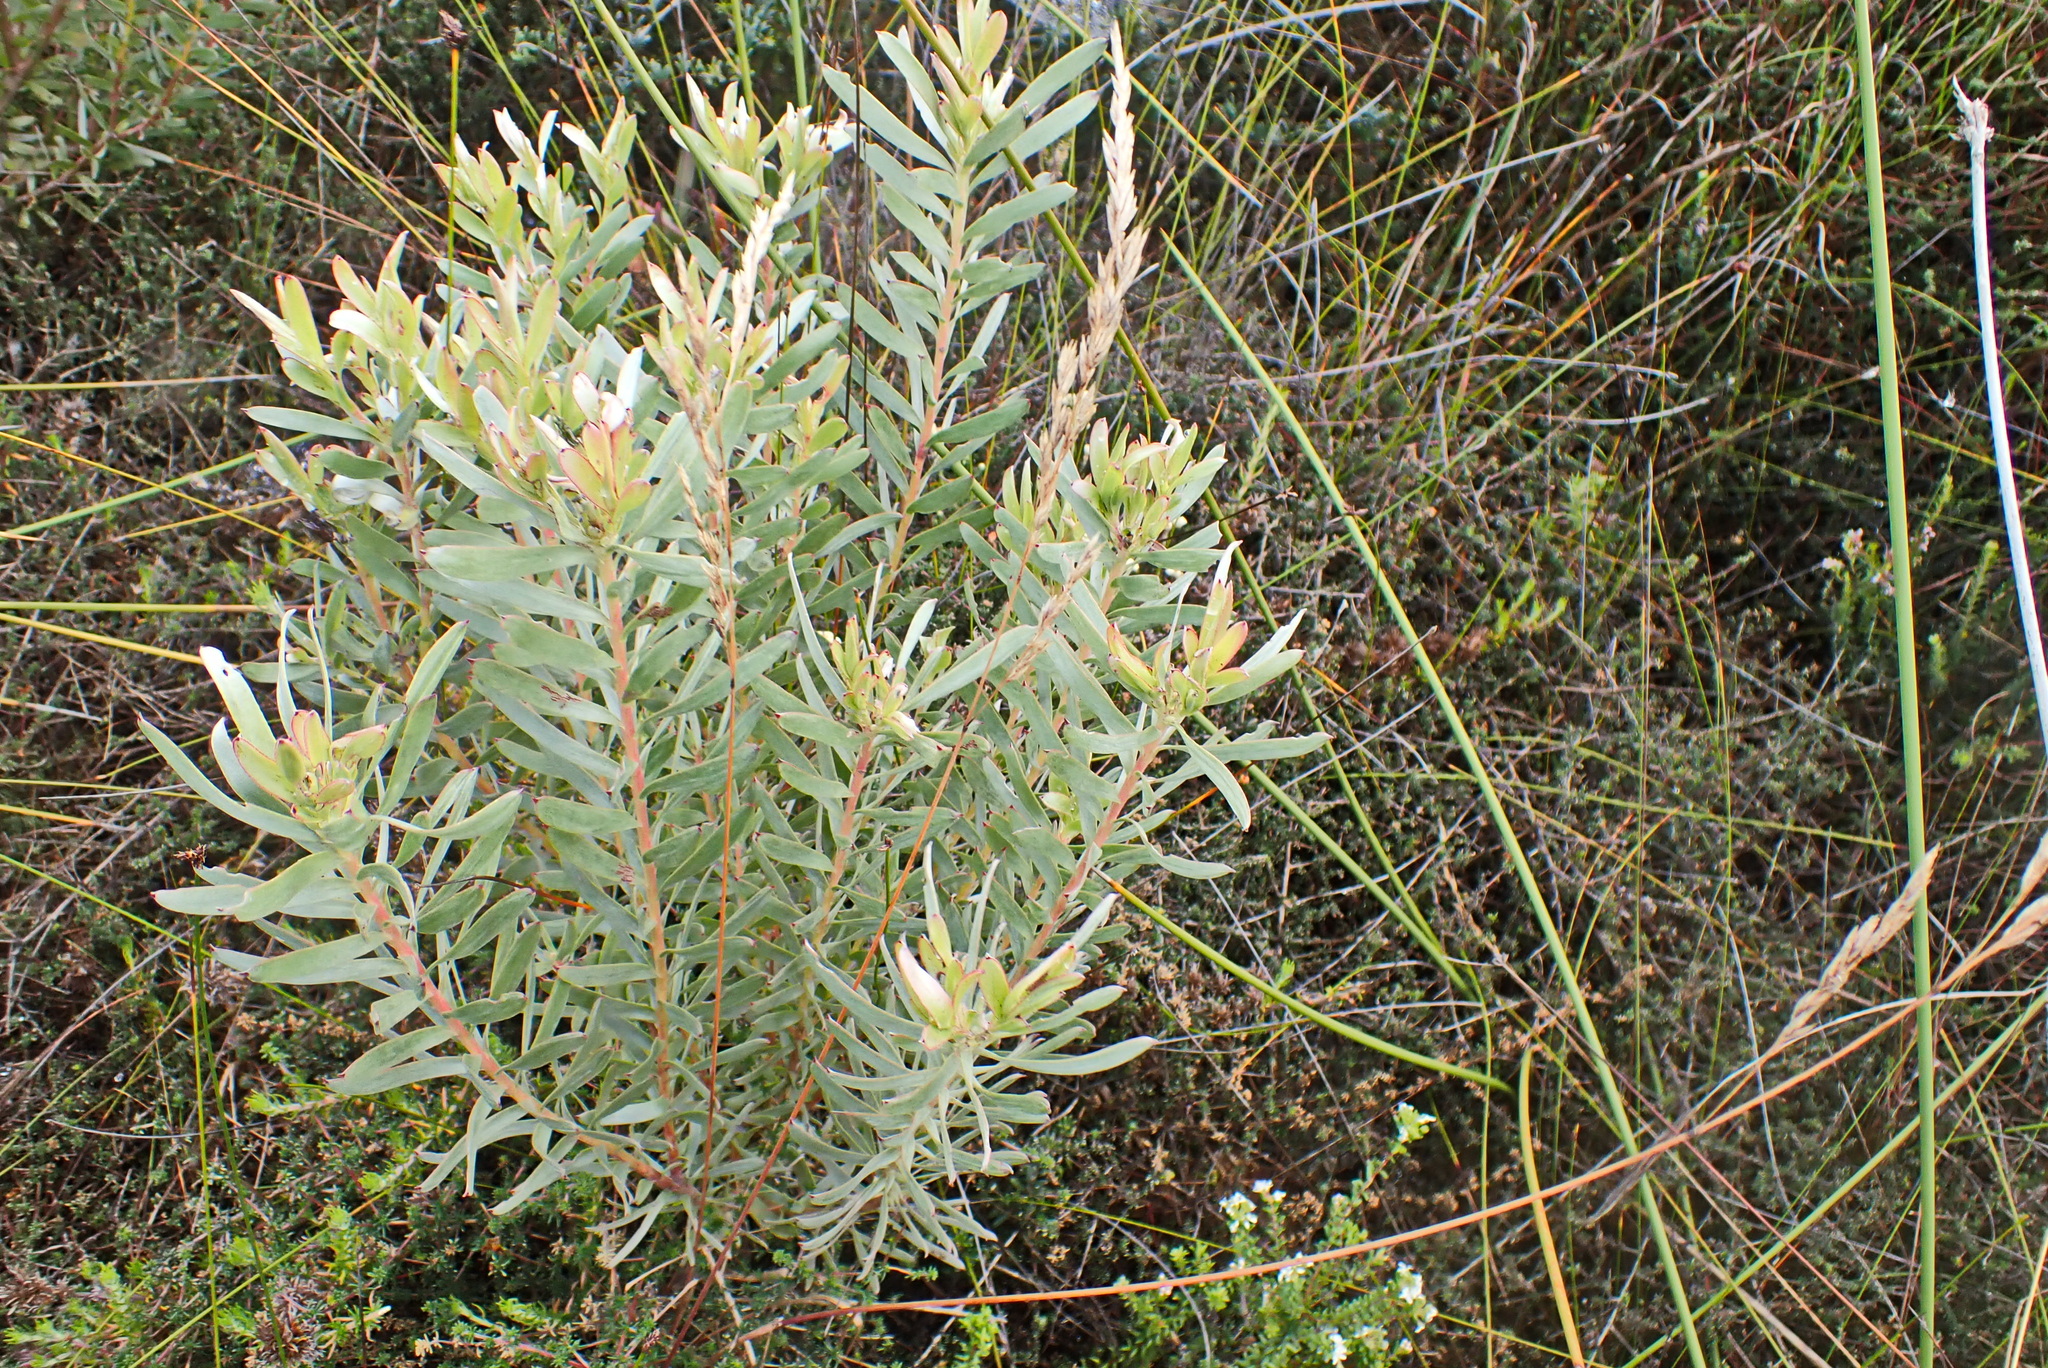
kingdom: Plantae
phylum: Tracheophyta
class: Magnoliopsida
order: Proteales
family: Proteaceae
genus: Leucadendron
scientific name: Leucadendron meridianum
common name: Limestone conebush
